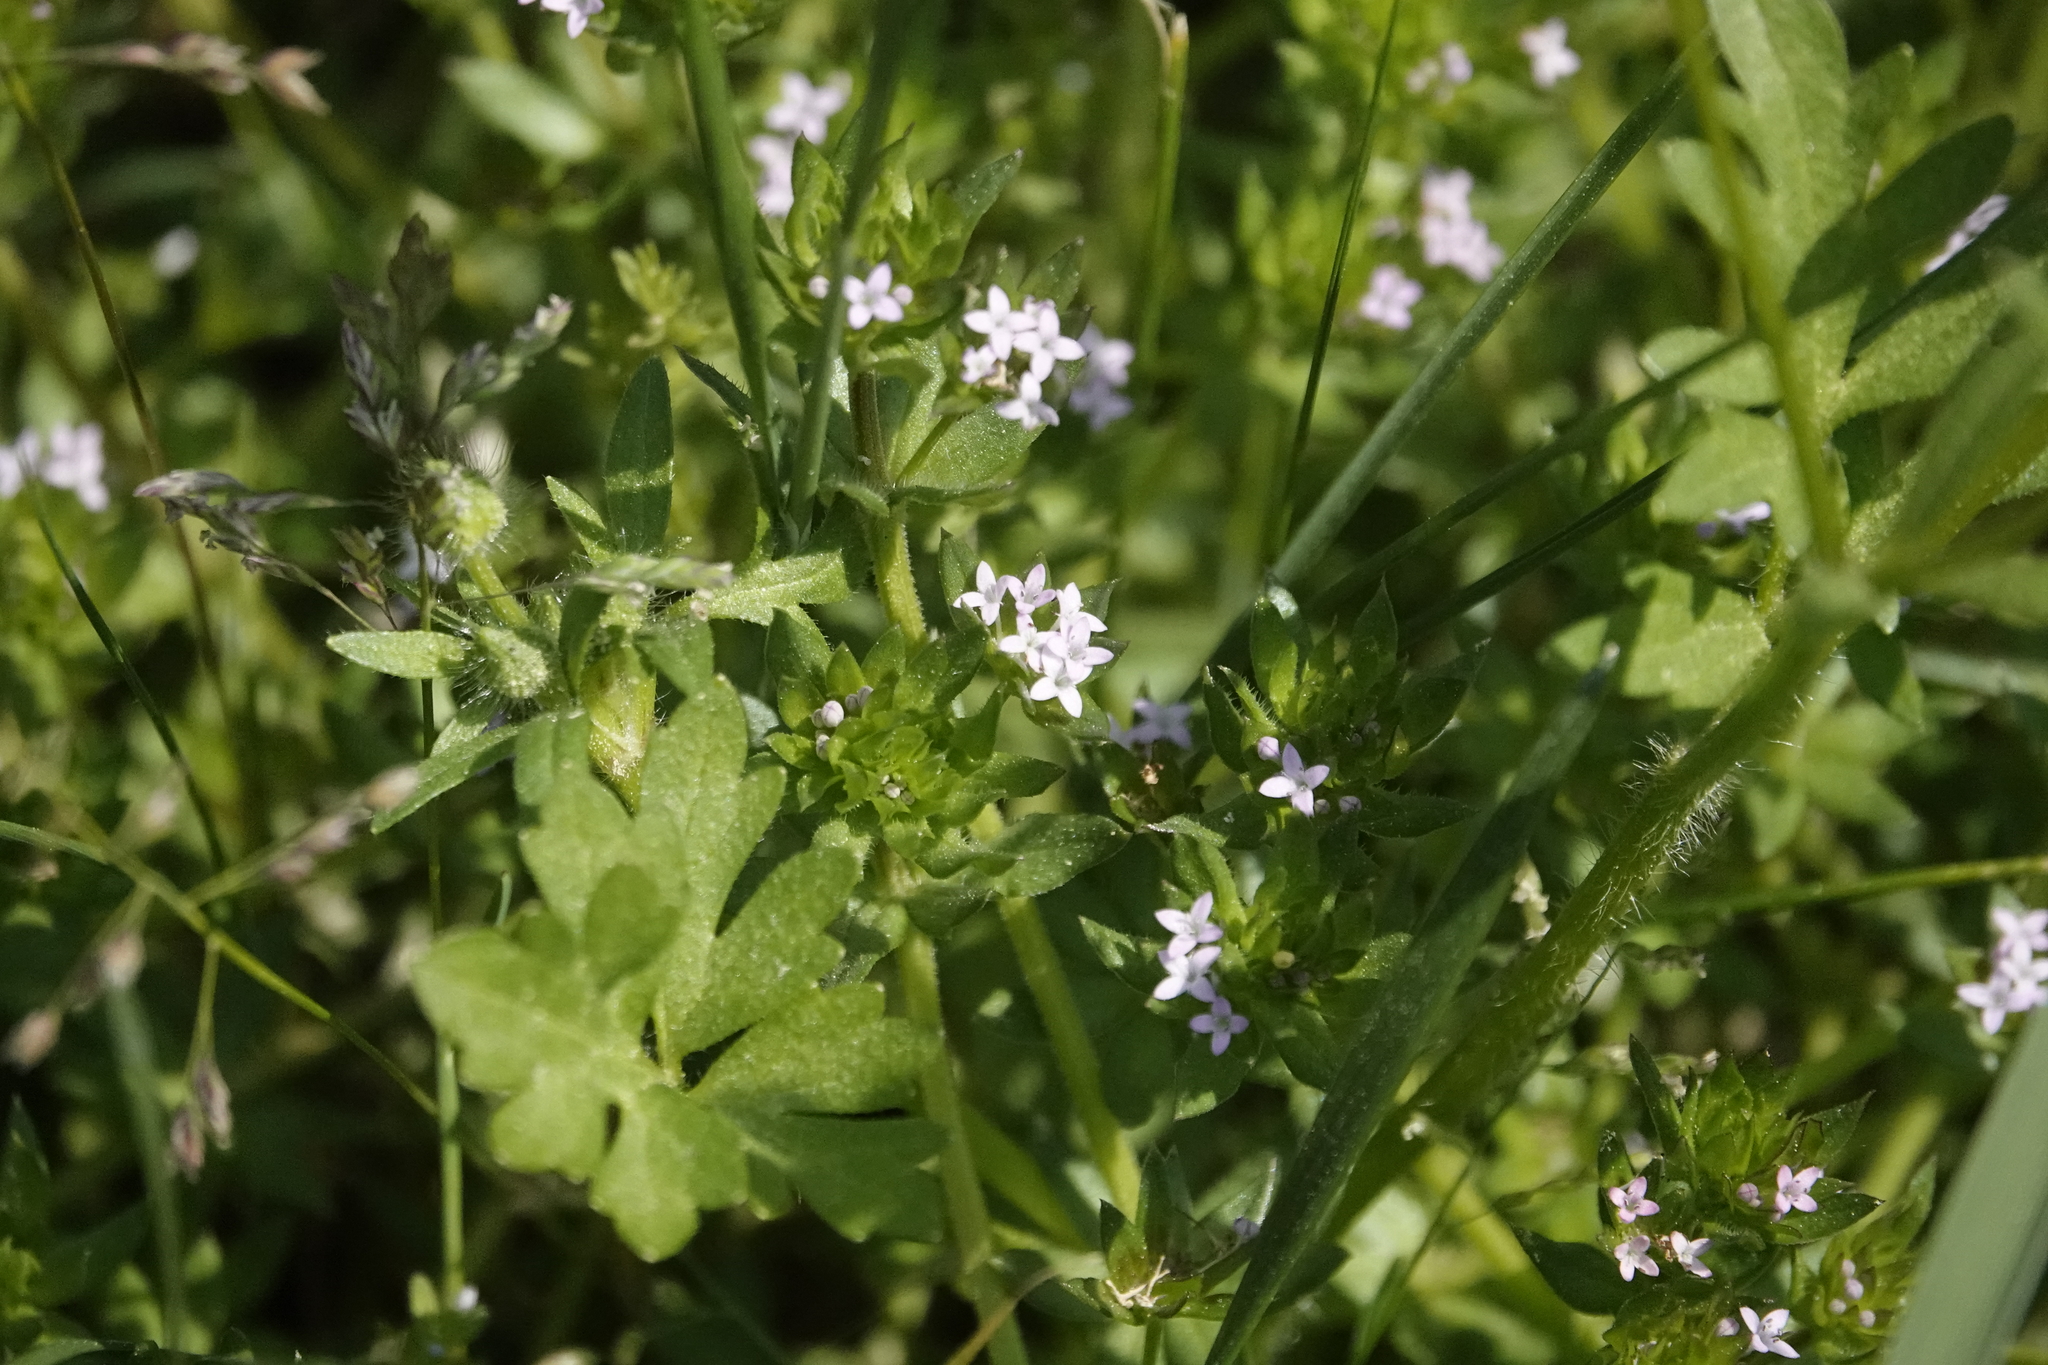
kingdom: Plantae
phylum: Tracheophyta
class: Magnoliopsida
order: Gentianales
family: Rubiaceae
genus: Sherardia
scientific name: Sherardia arvensis
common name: Field madder
